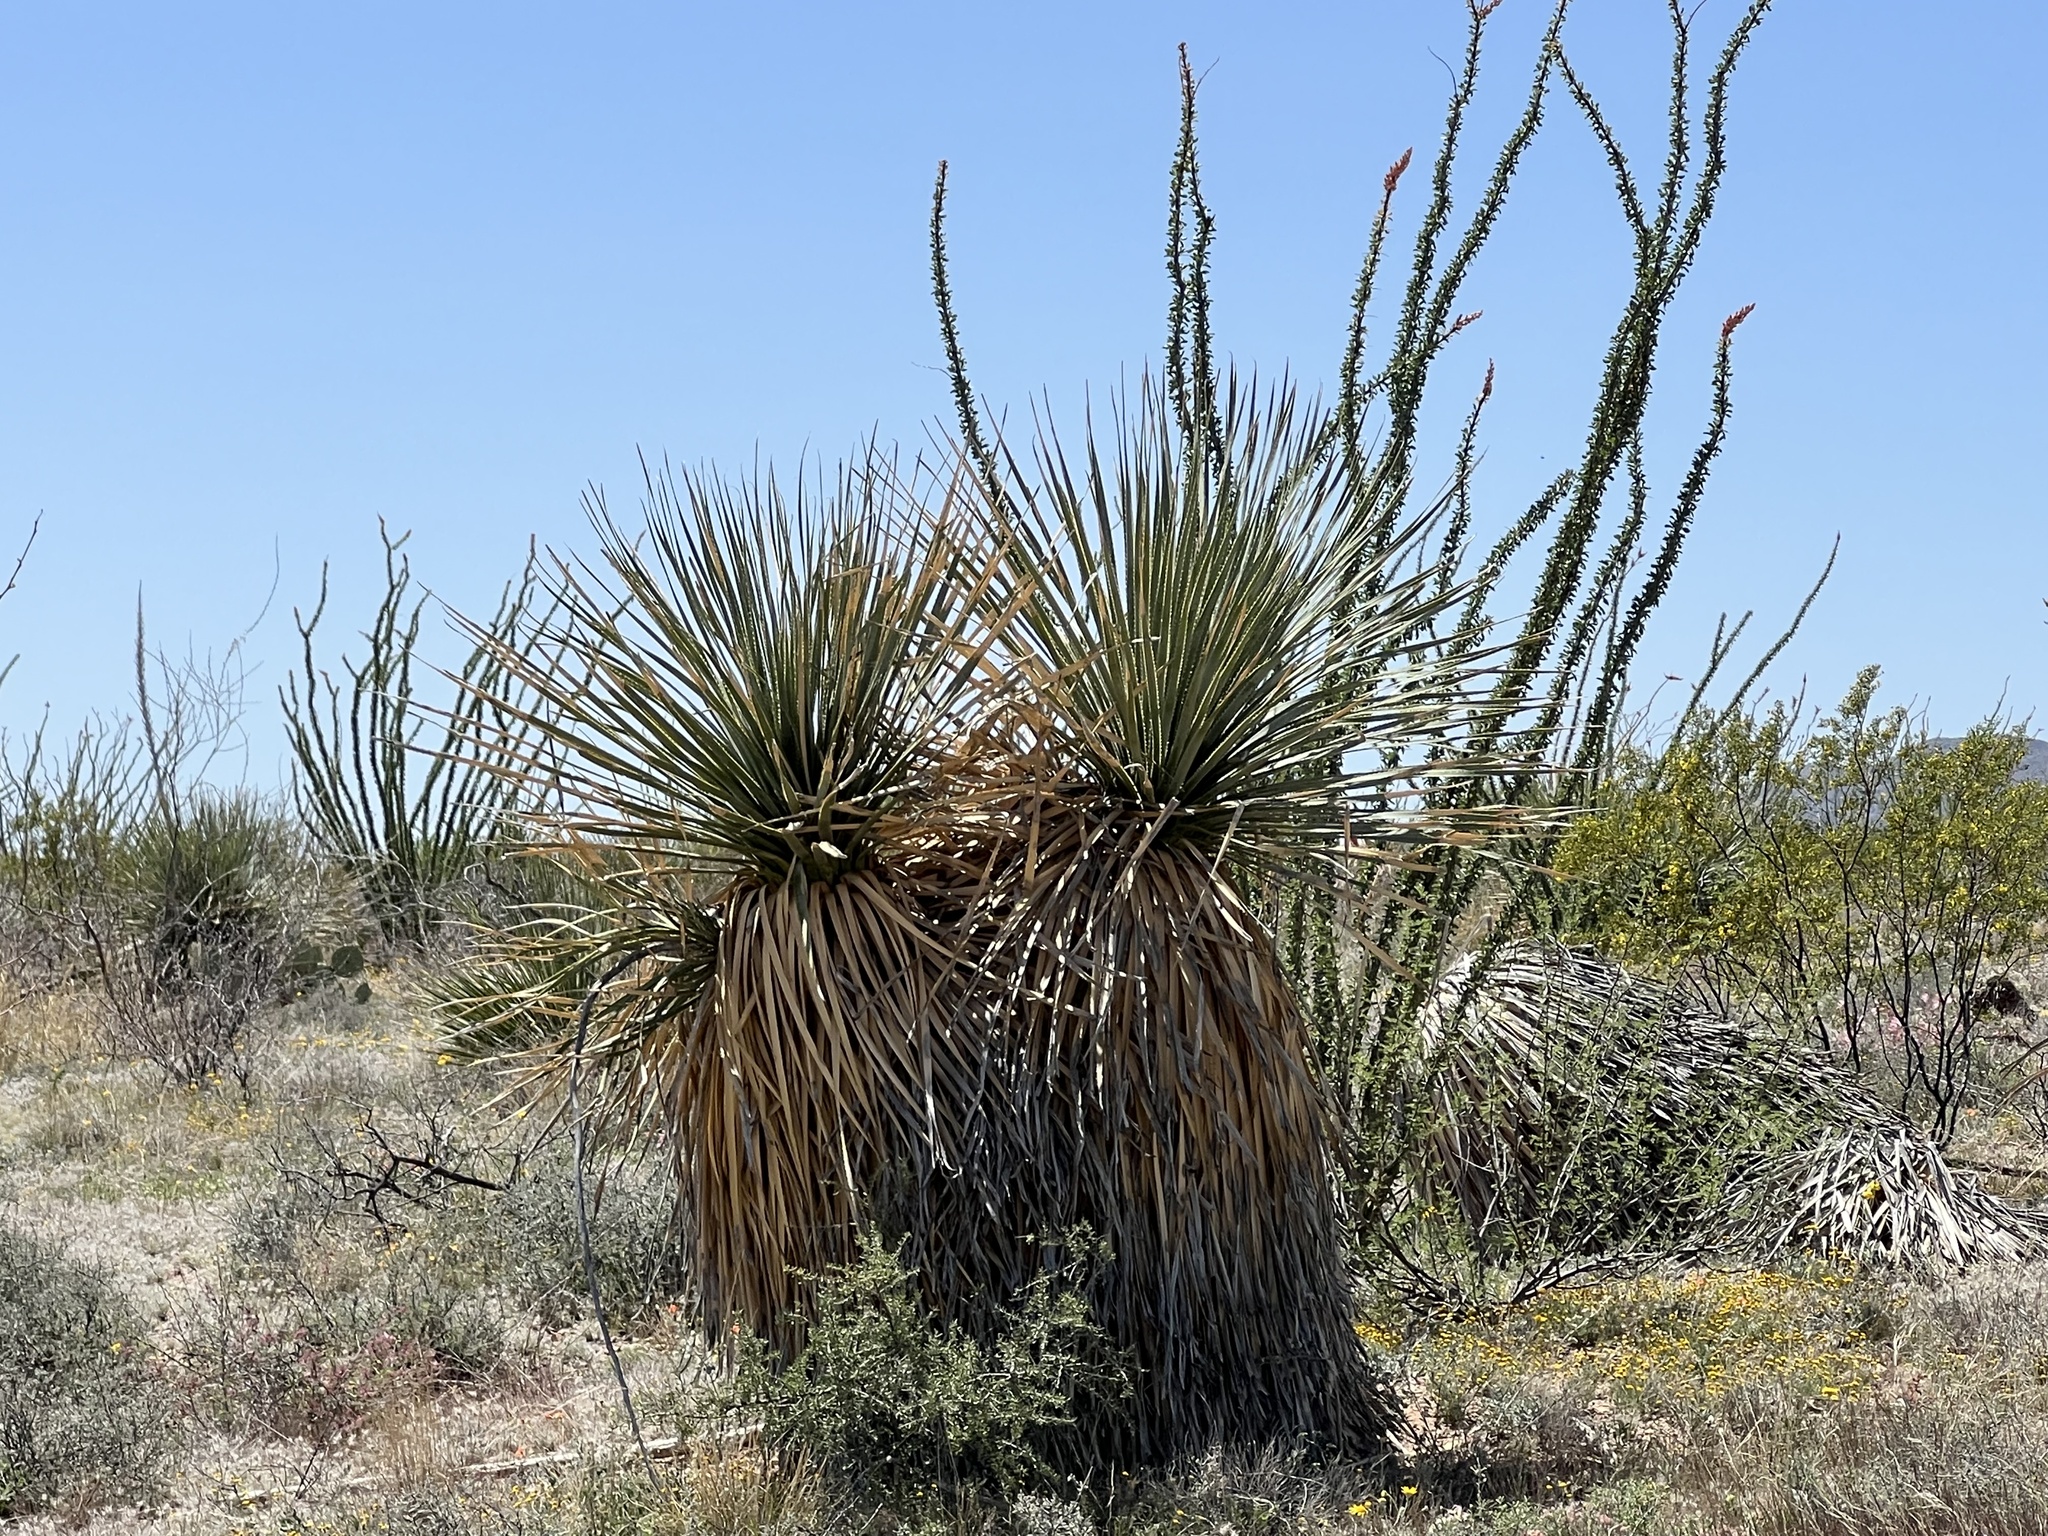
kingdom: Plantae
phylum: Tracheophyta
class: Liliopsida
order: Asparagales
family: Asparagaceae
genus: Dasylirion
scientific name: Dasylirion wheeleri
